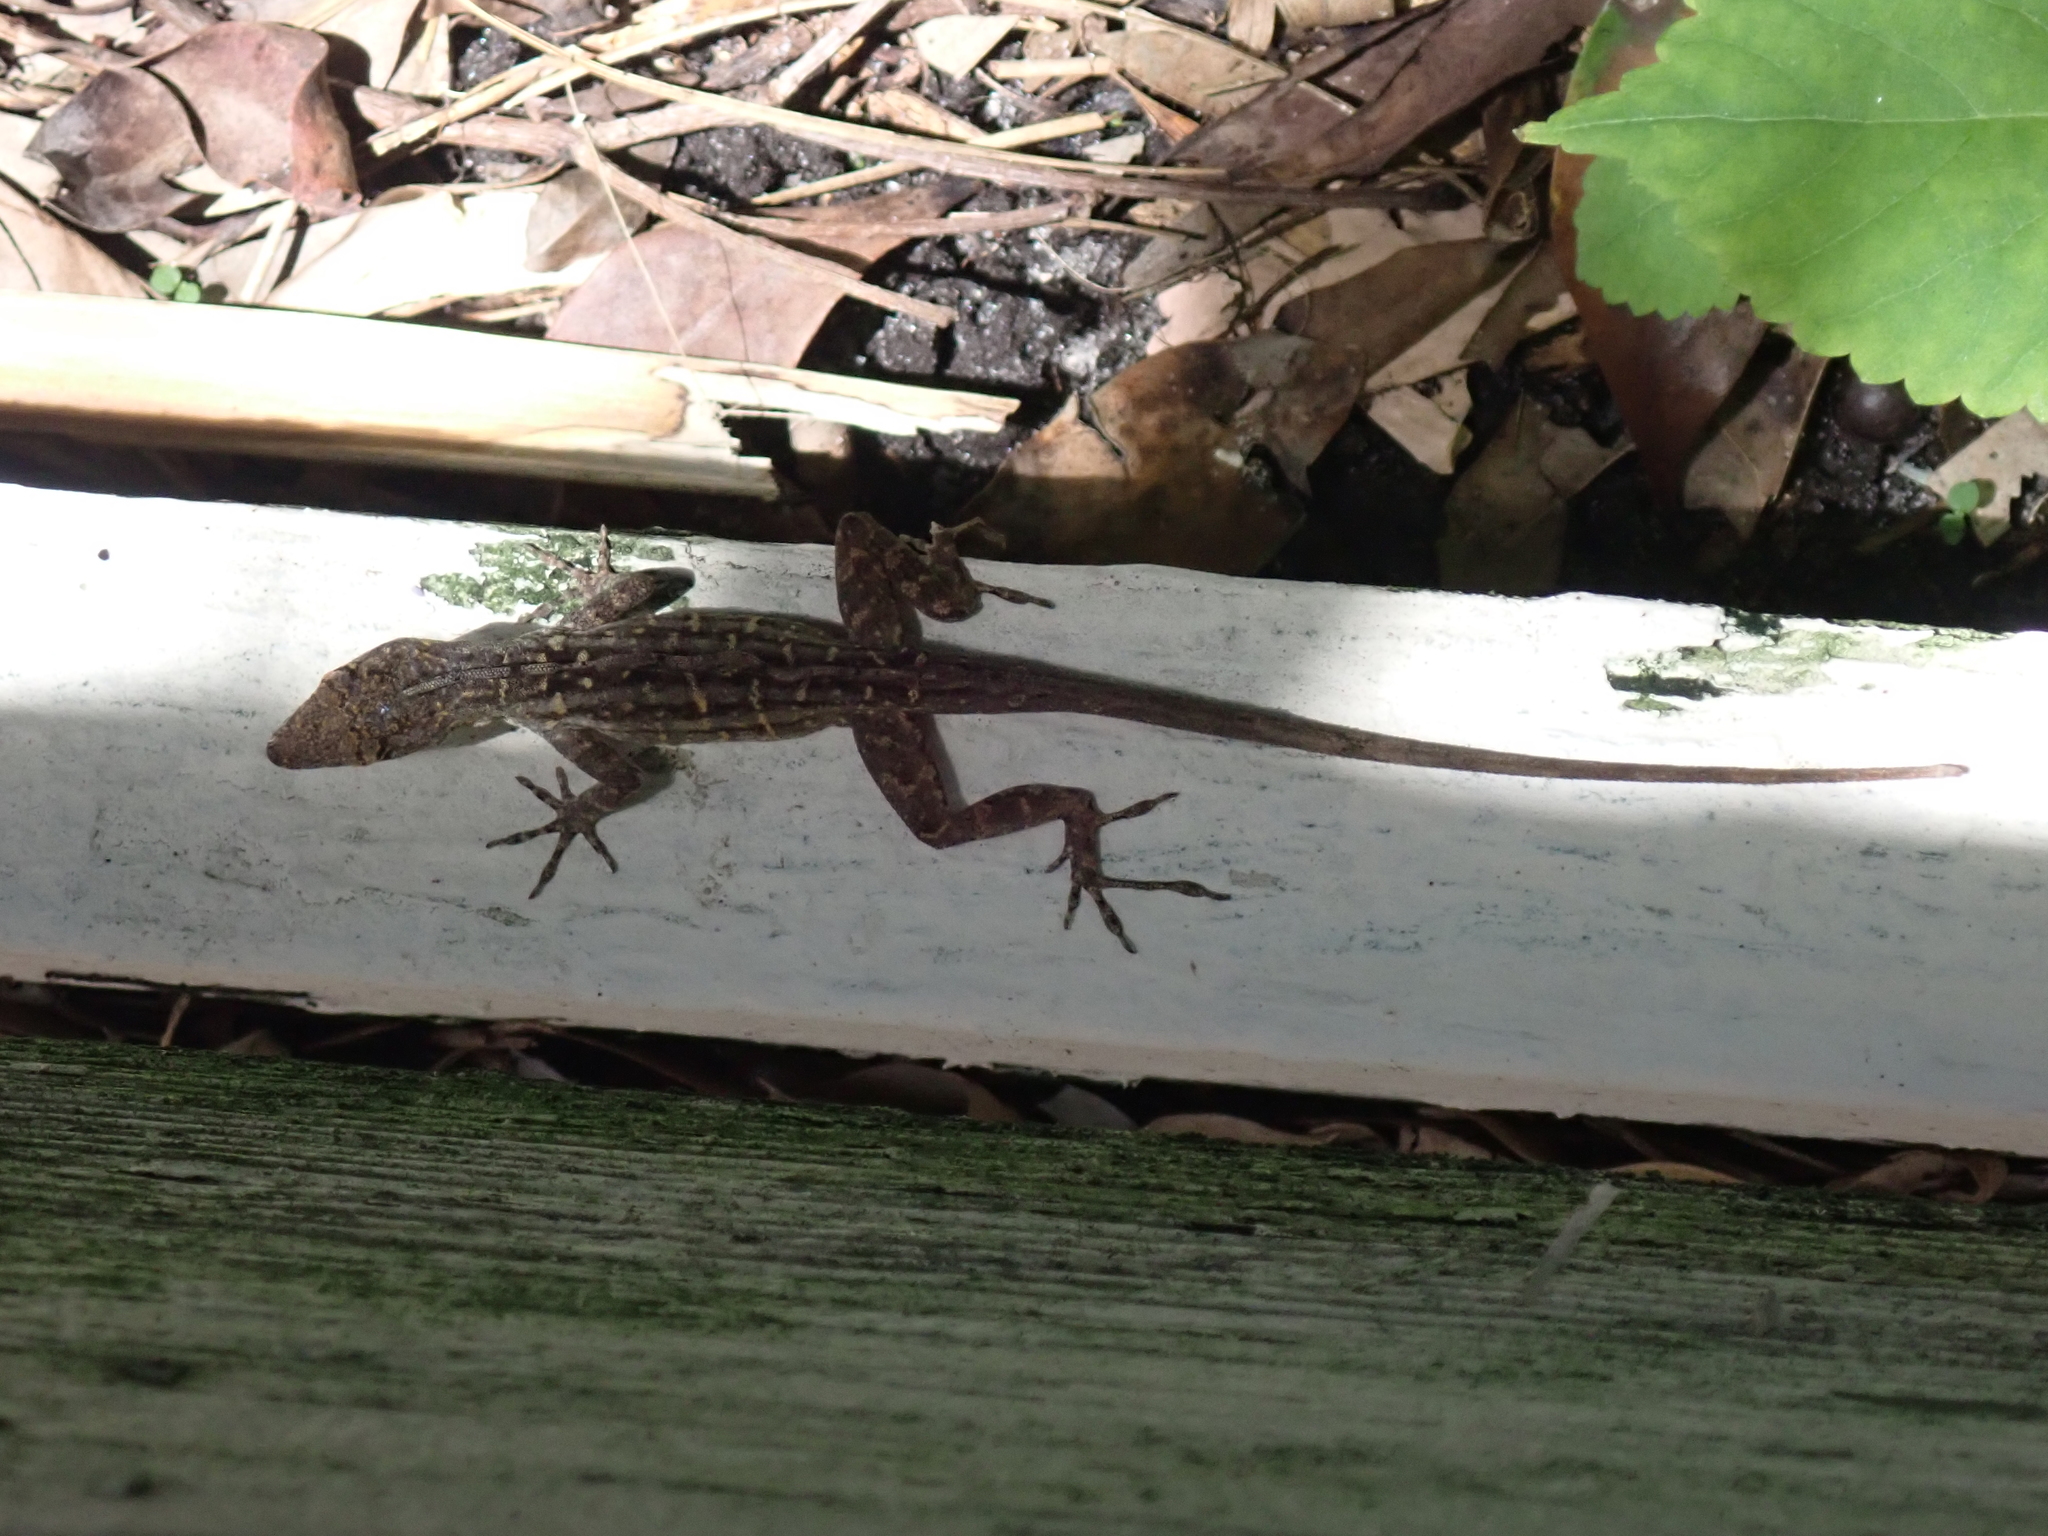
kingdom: Animalia
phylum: Chordata
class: Squamata
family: Dactyloidae
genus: Anolis
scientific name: Anolis sagrei
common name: Brown anole
